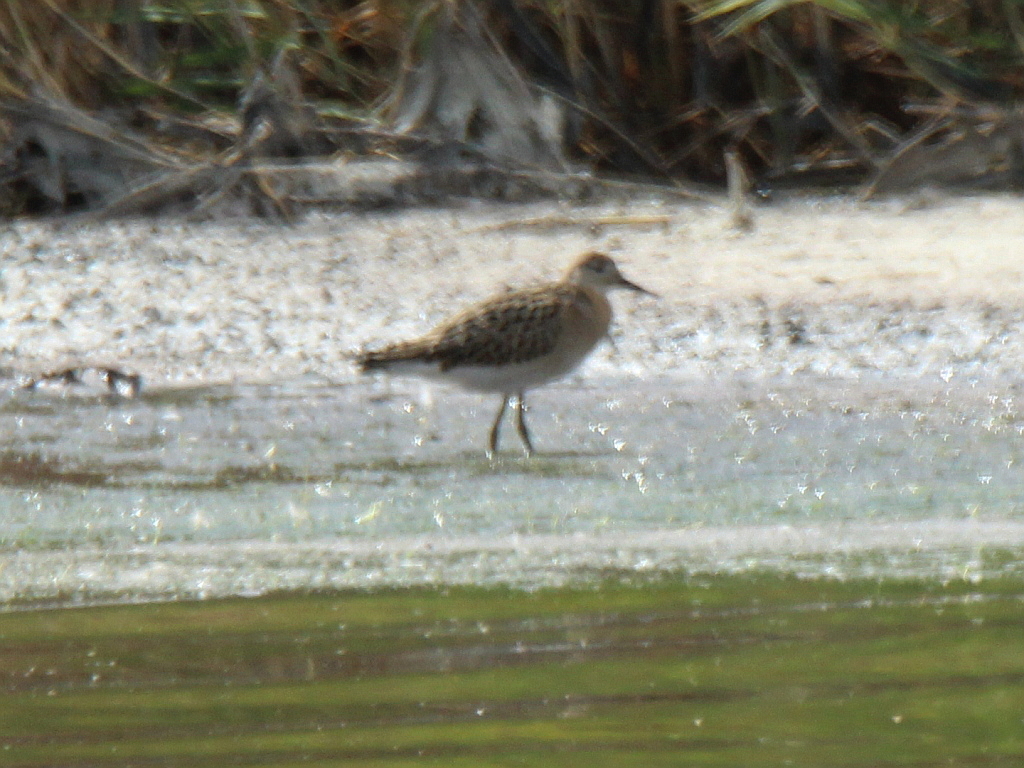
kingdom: Animalia
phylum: Chordata
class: Aves
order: Charadriiformes
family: Scolopacidae
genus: Calidris
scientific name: Calidris pugnax
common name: Ruff
